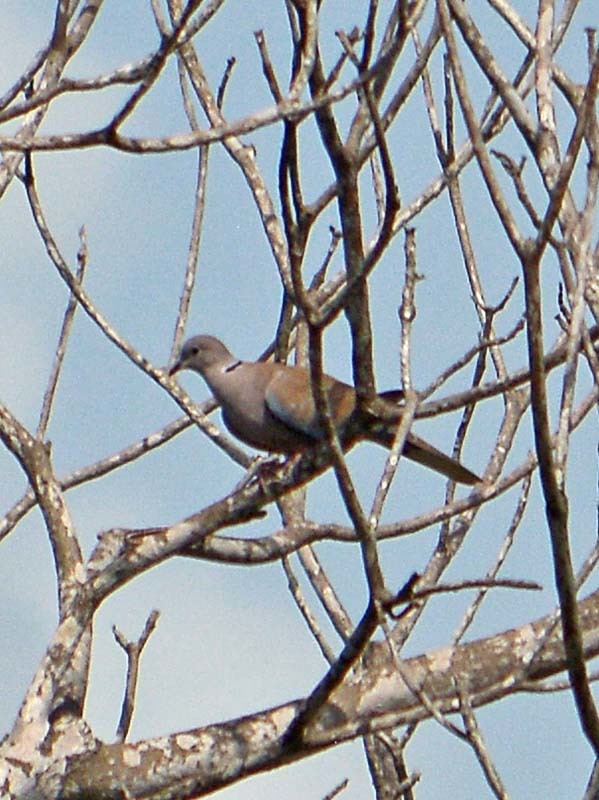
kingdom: Animalia
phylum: Chordata
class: Aves
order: Columbiformes
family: Columbidae
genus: Streptopelia
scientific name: Streptopelia decaocto
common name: Eurasian collared dove
